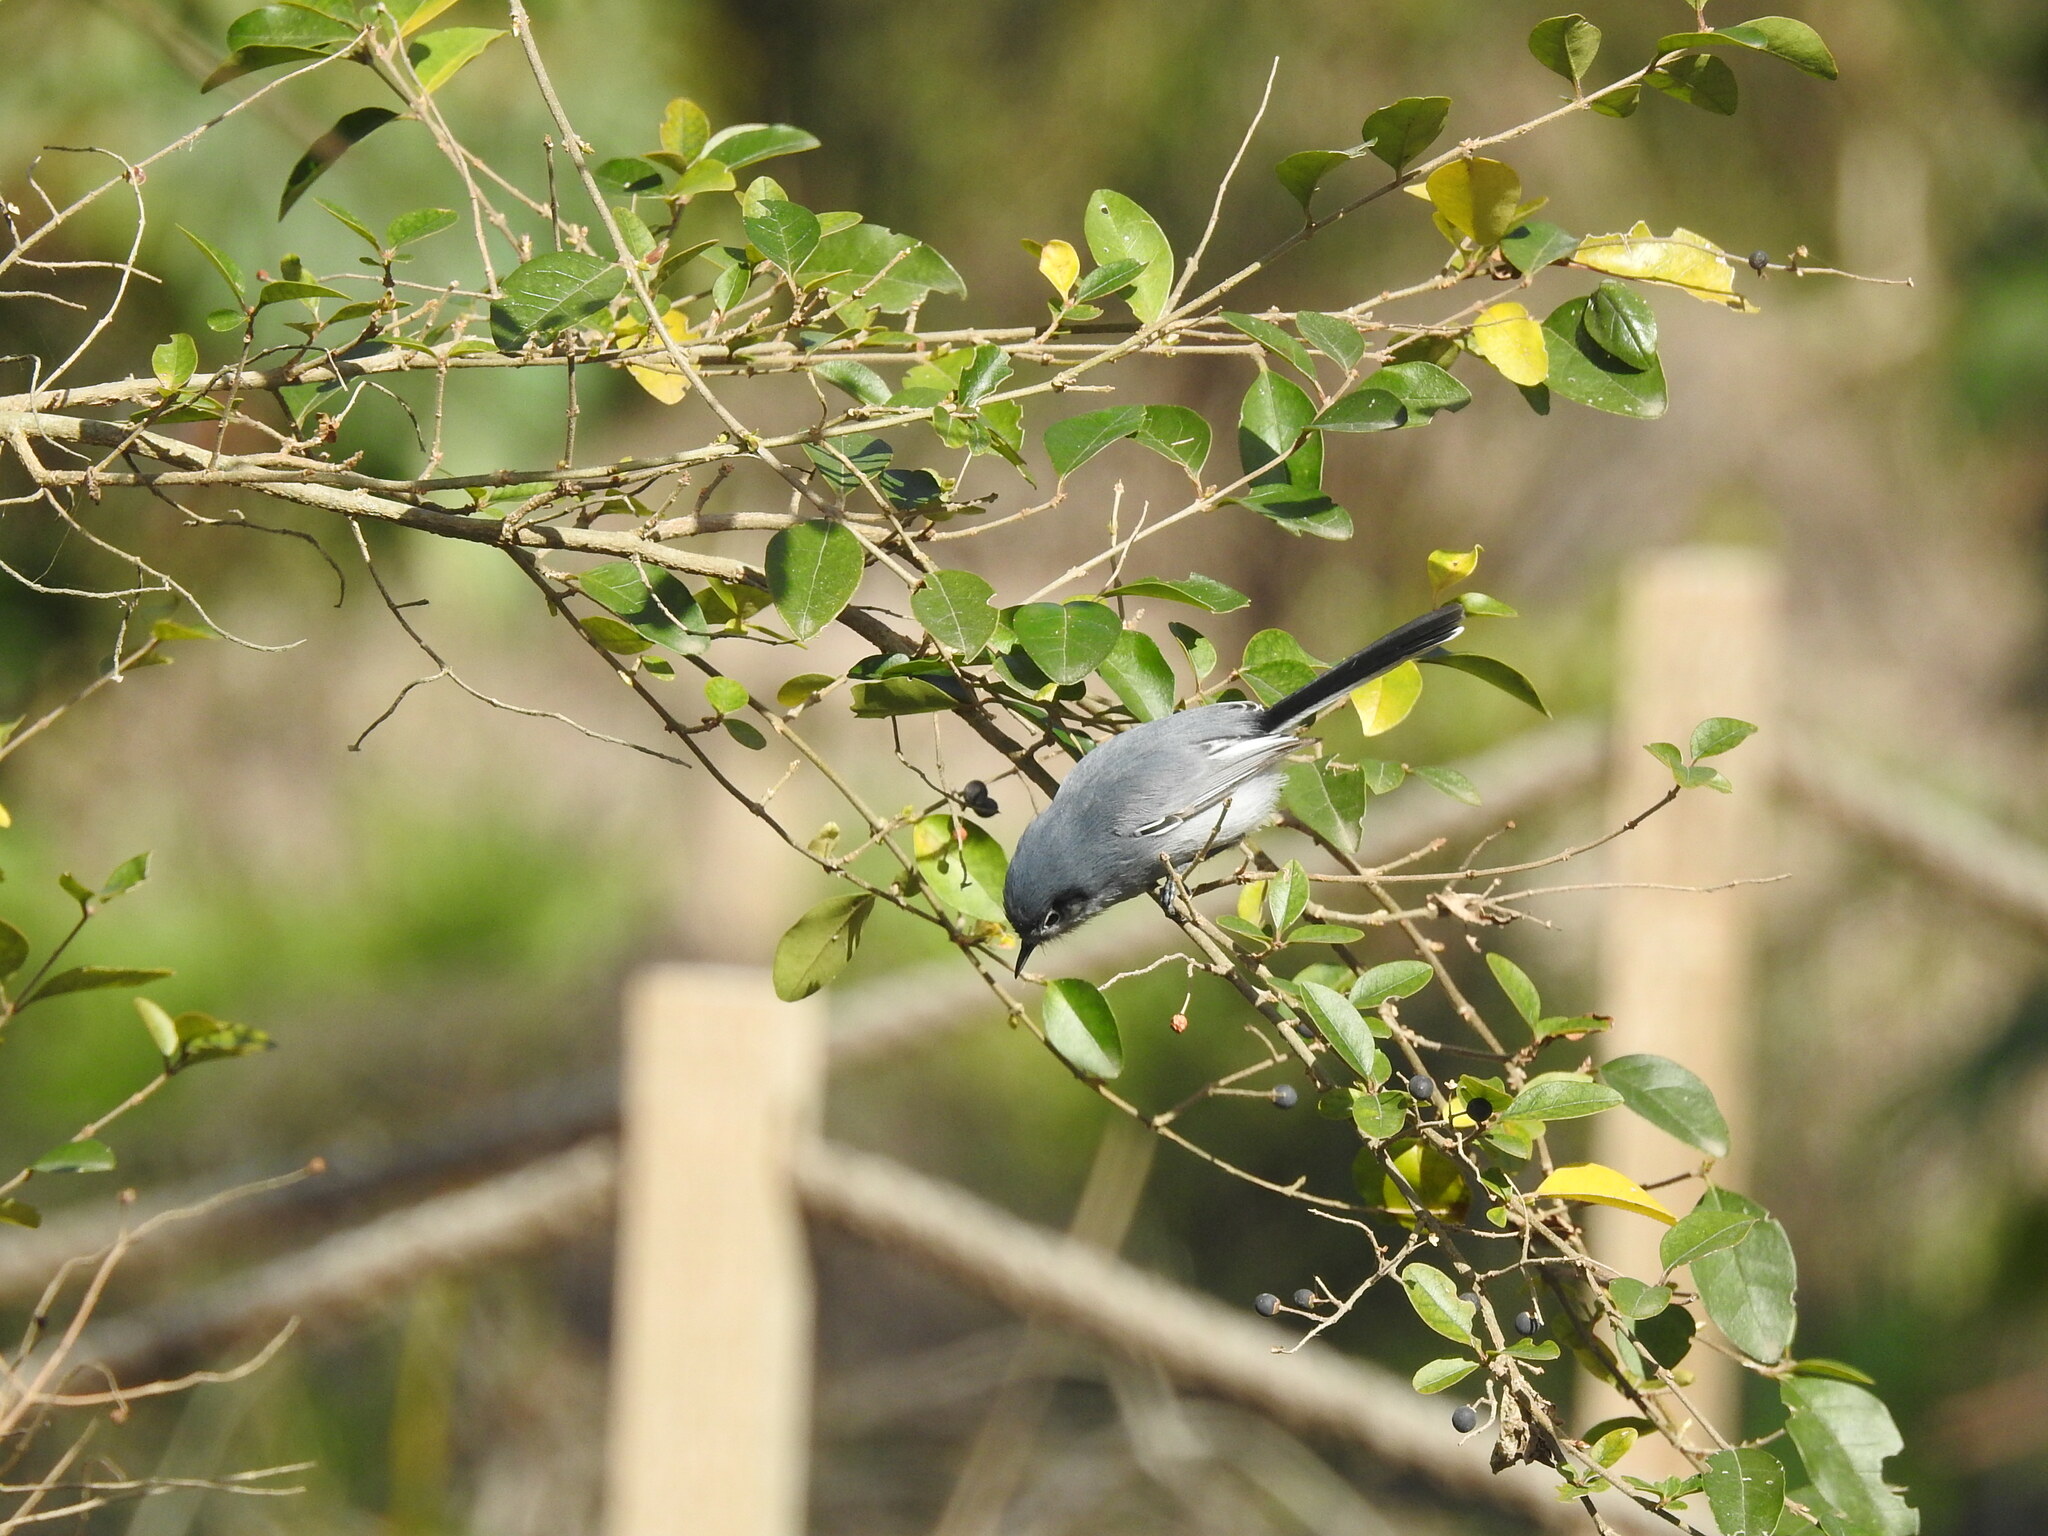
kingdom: Animalia
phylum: Chordata
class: Aves
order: Passeriformes
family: Polioptilidae
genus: Polioptila
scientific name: Polioptila dumicola
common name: Masked gnatcatcher
